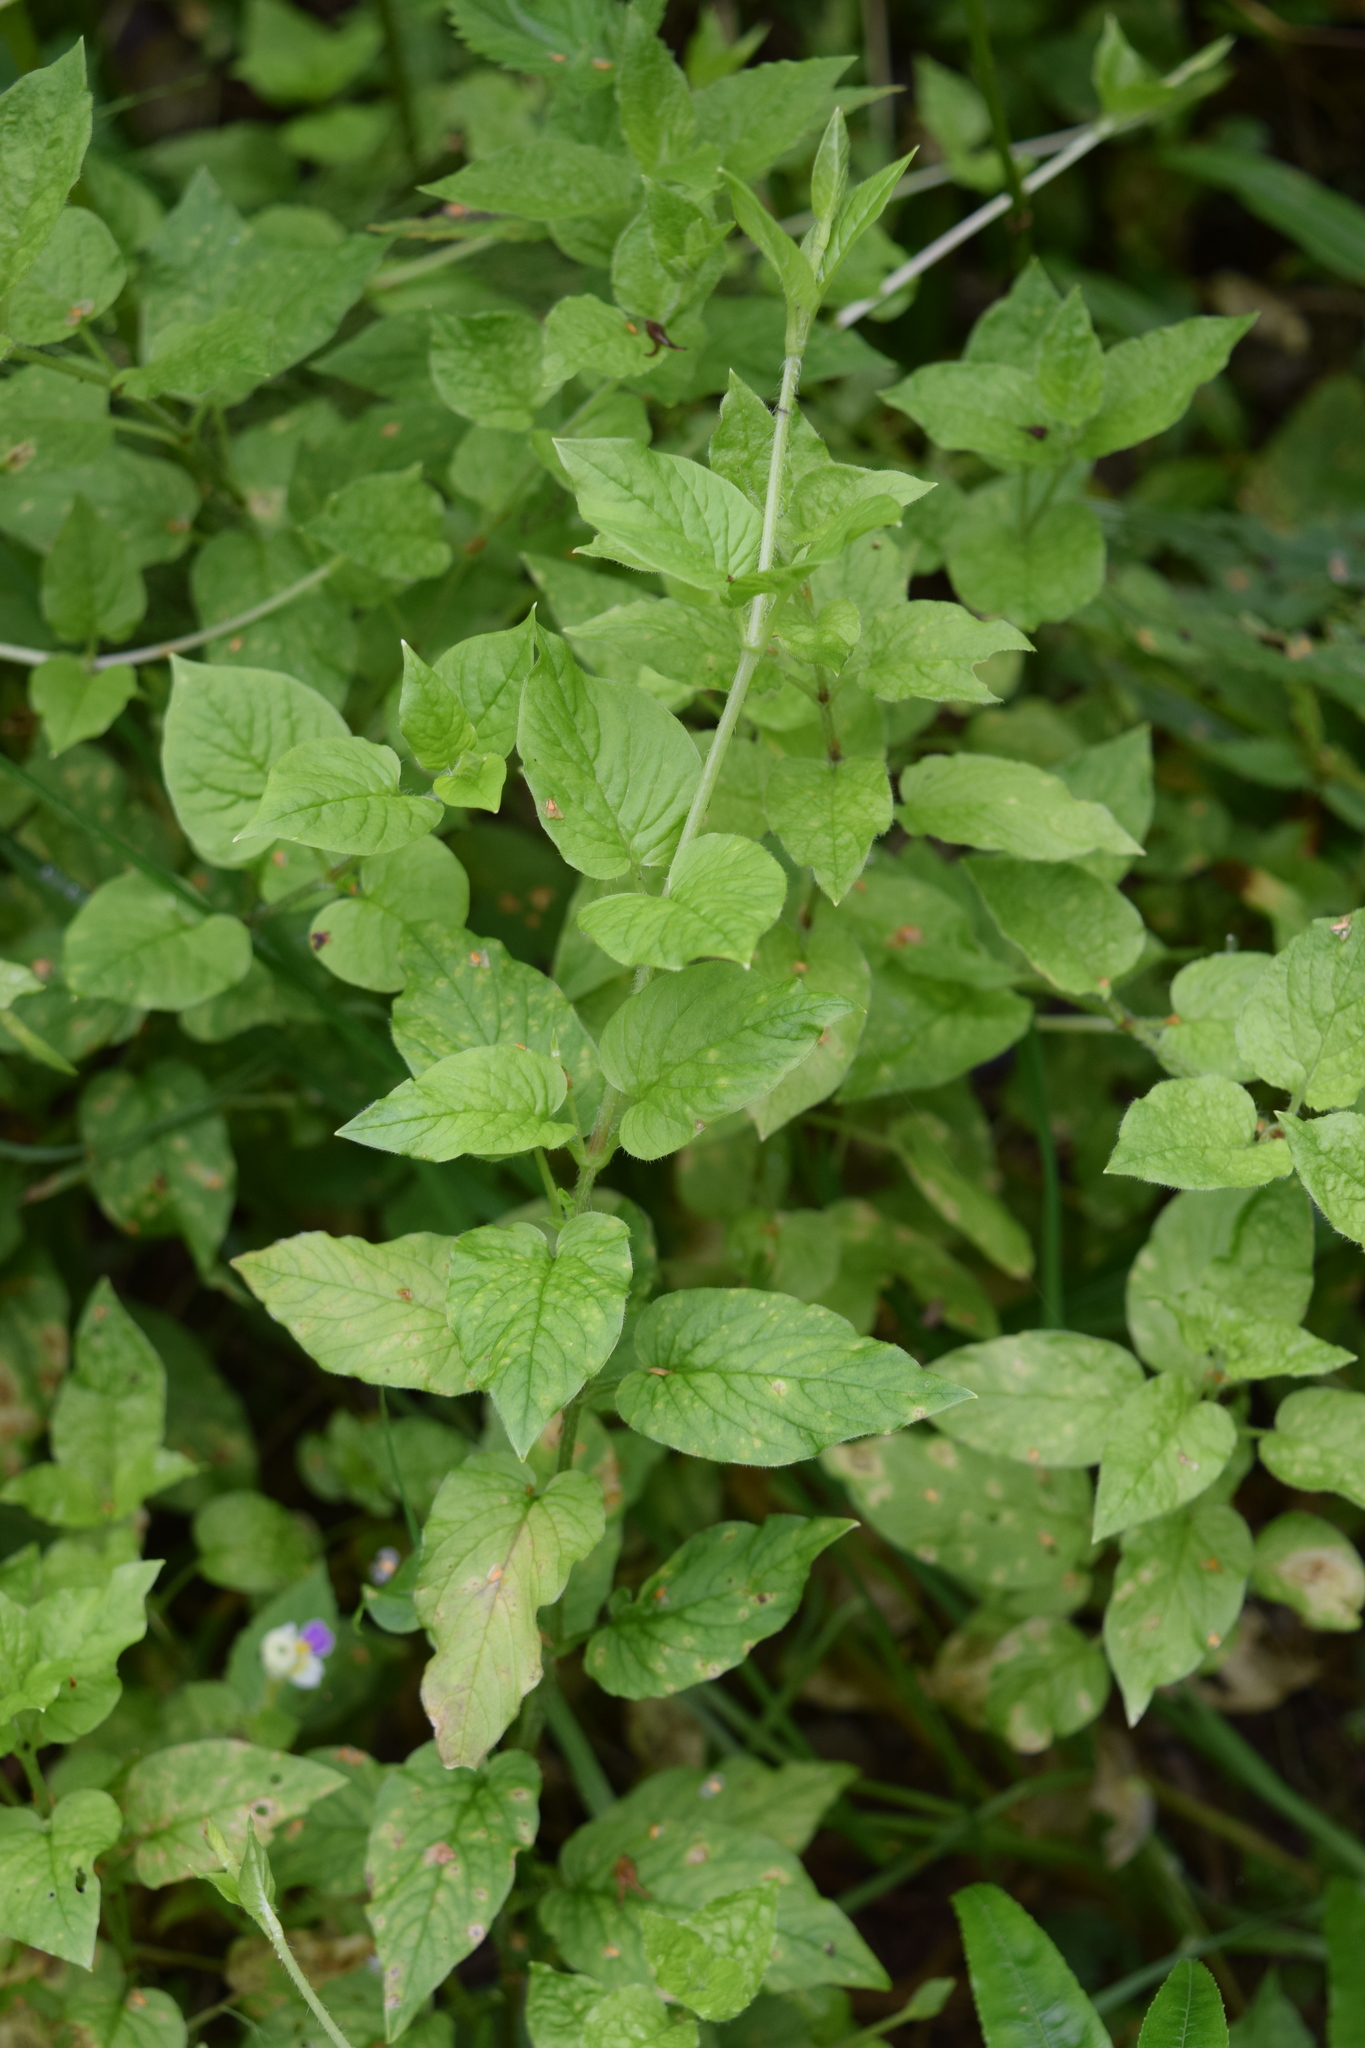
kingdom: Plantae
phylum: Tracheophyta
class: Magnoliopsida
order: Caryophyllales
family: Caryophyllaceae
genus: Stellaria
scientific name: Stellaria nemorum
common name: Wood stitchwort
